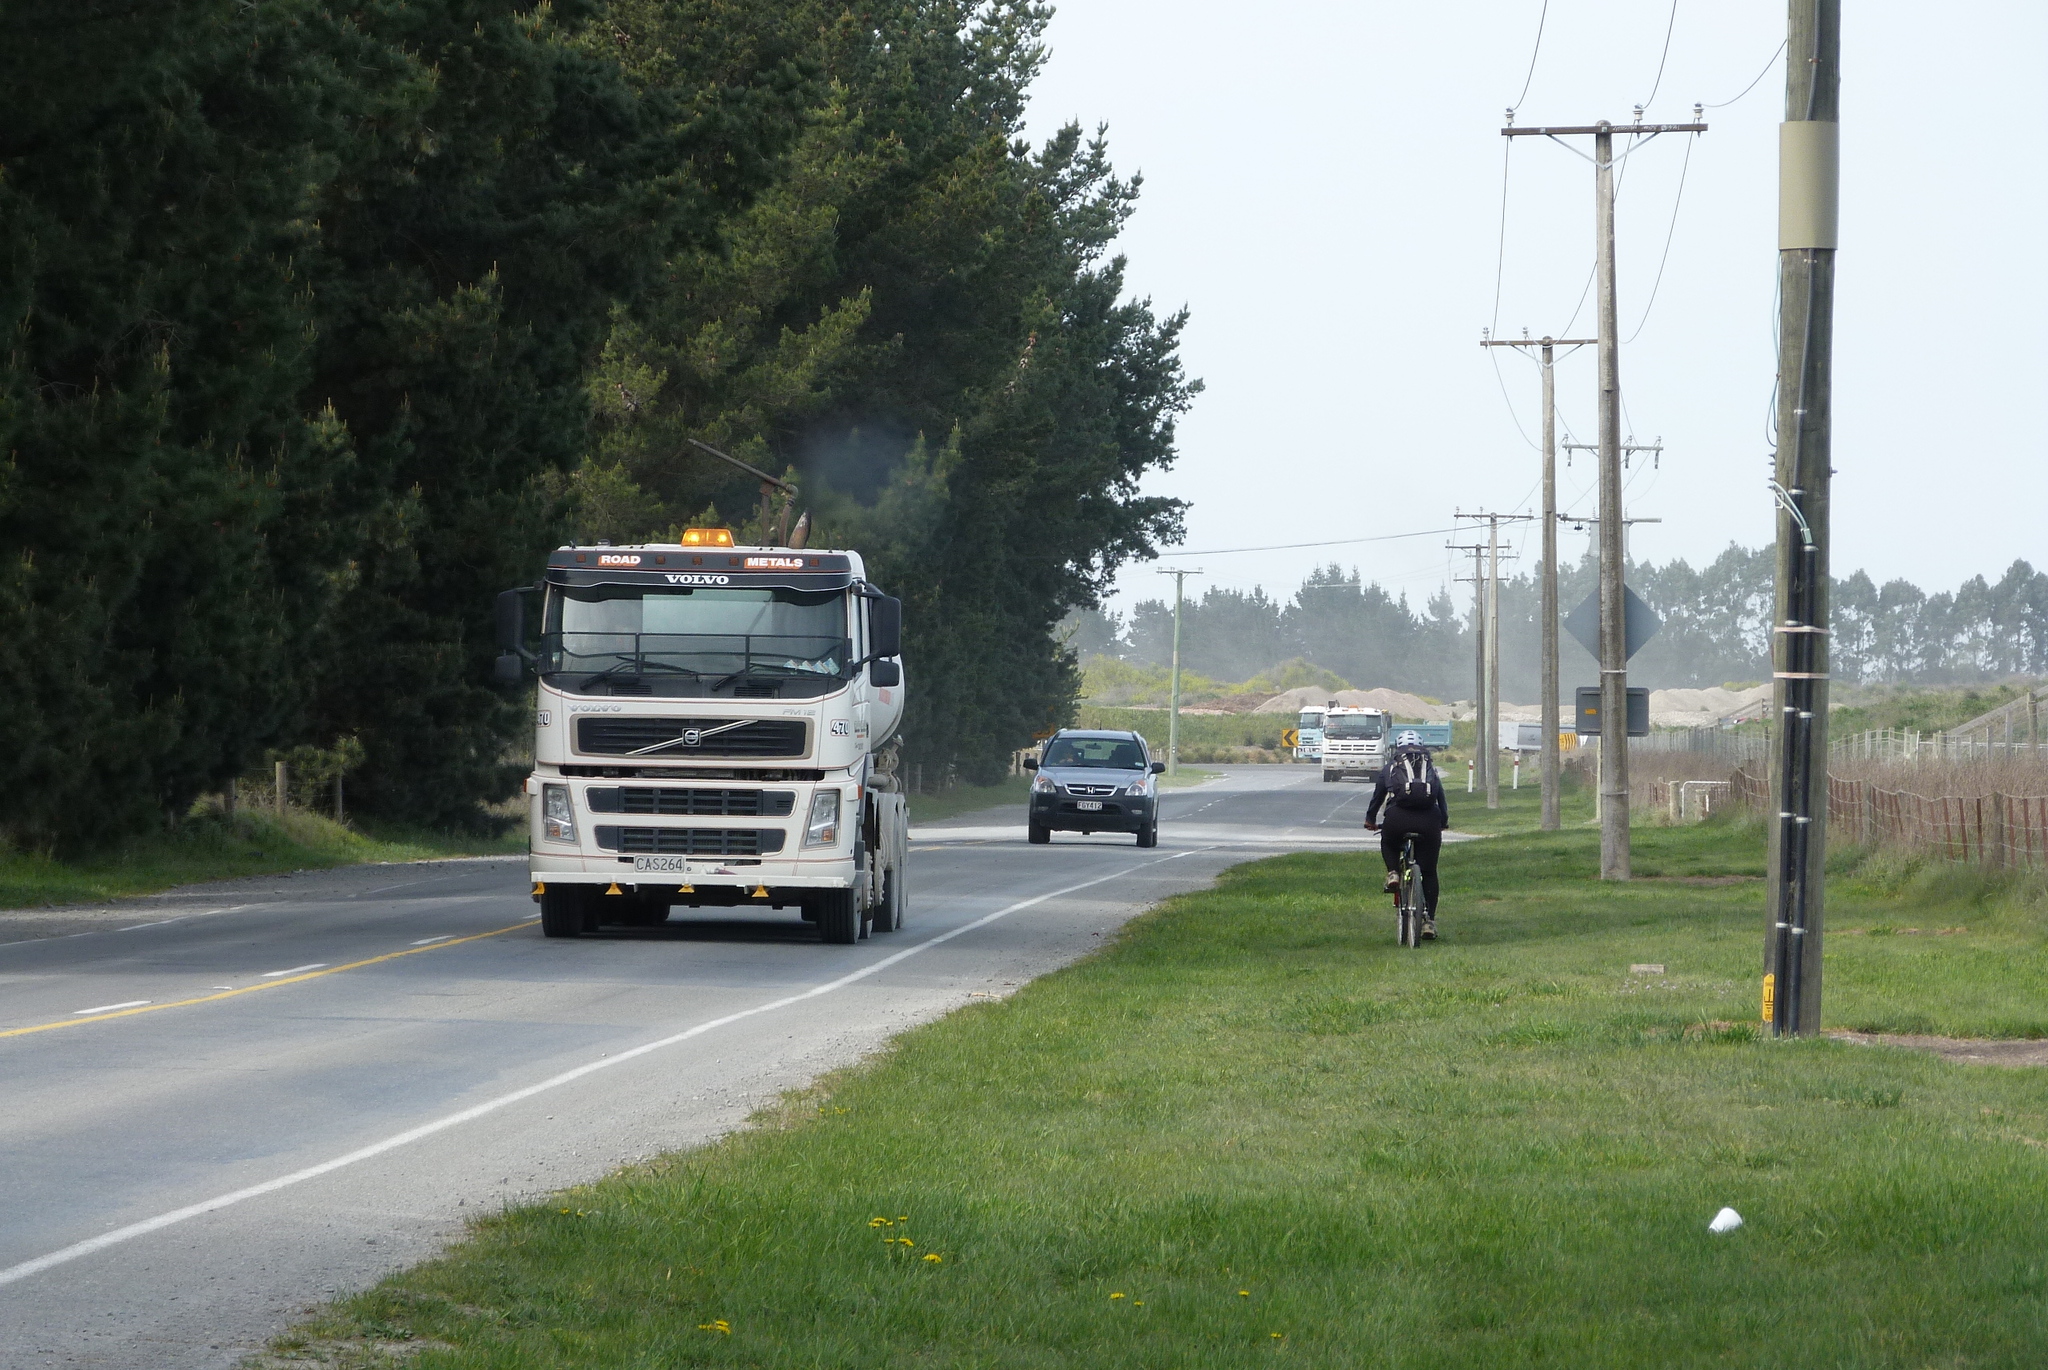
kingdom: Plantae
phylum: Tracheophyta
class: Magnoliopsida
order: Asterales
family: Asteraceae
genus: Taraxacum
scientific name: Taraxacum officinale
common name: Common dandelion
